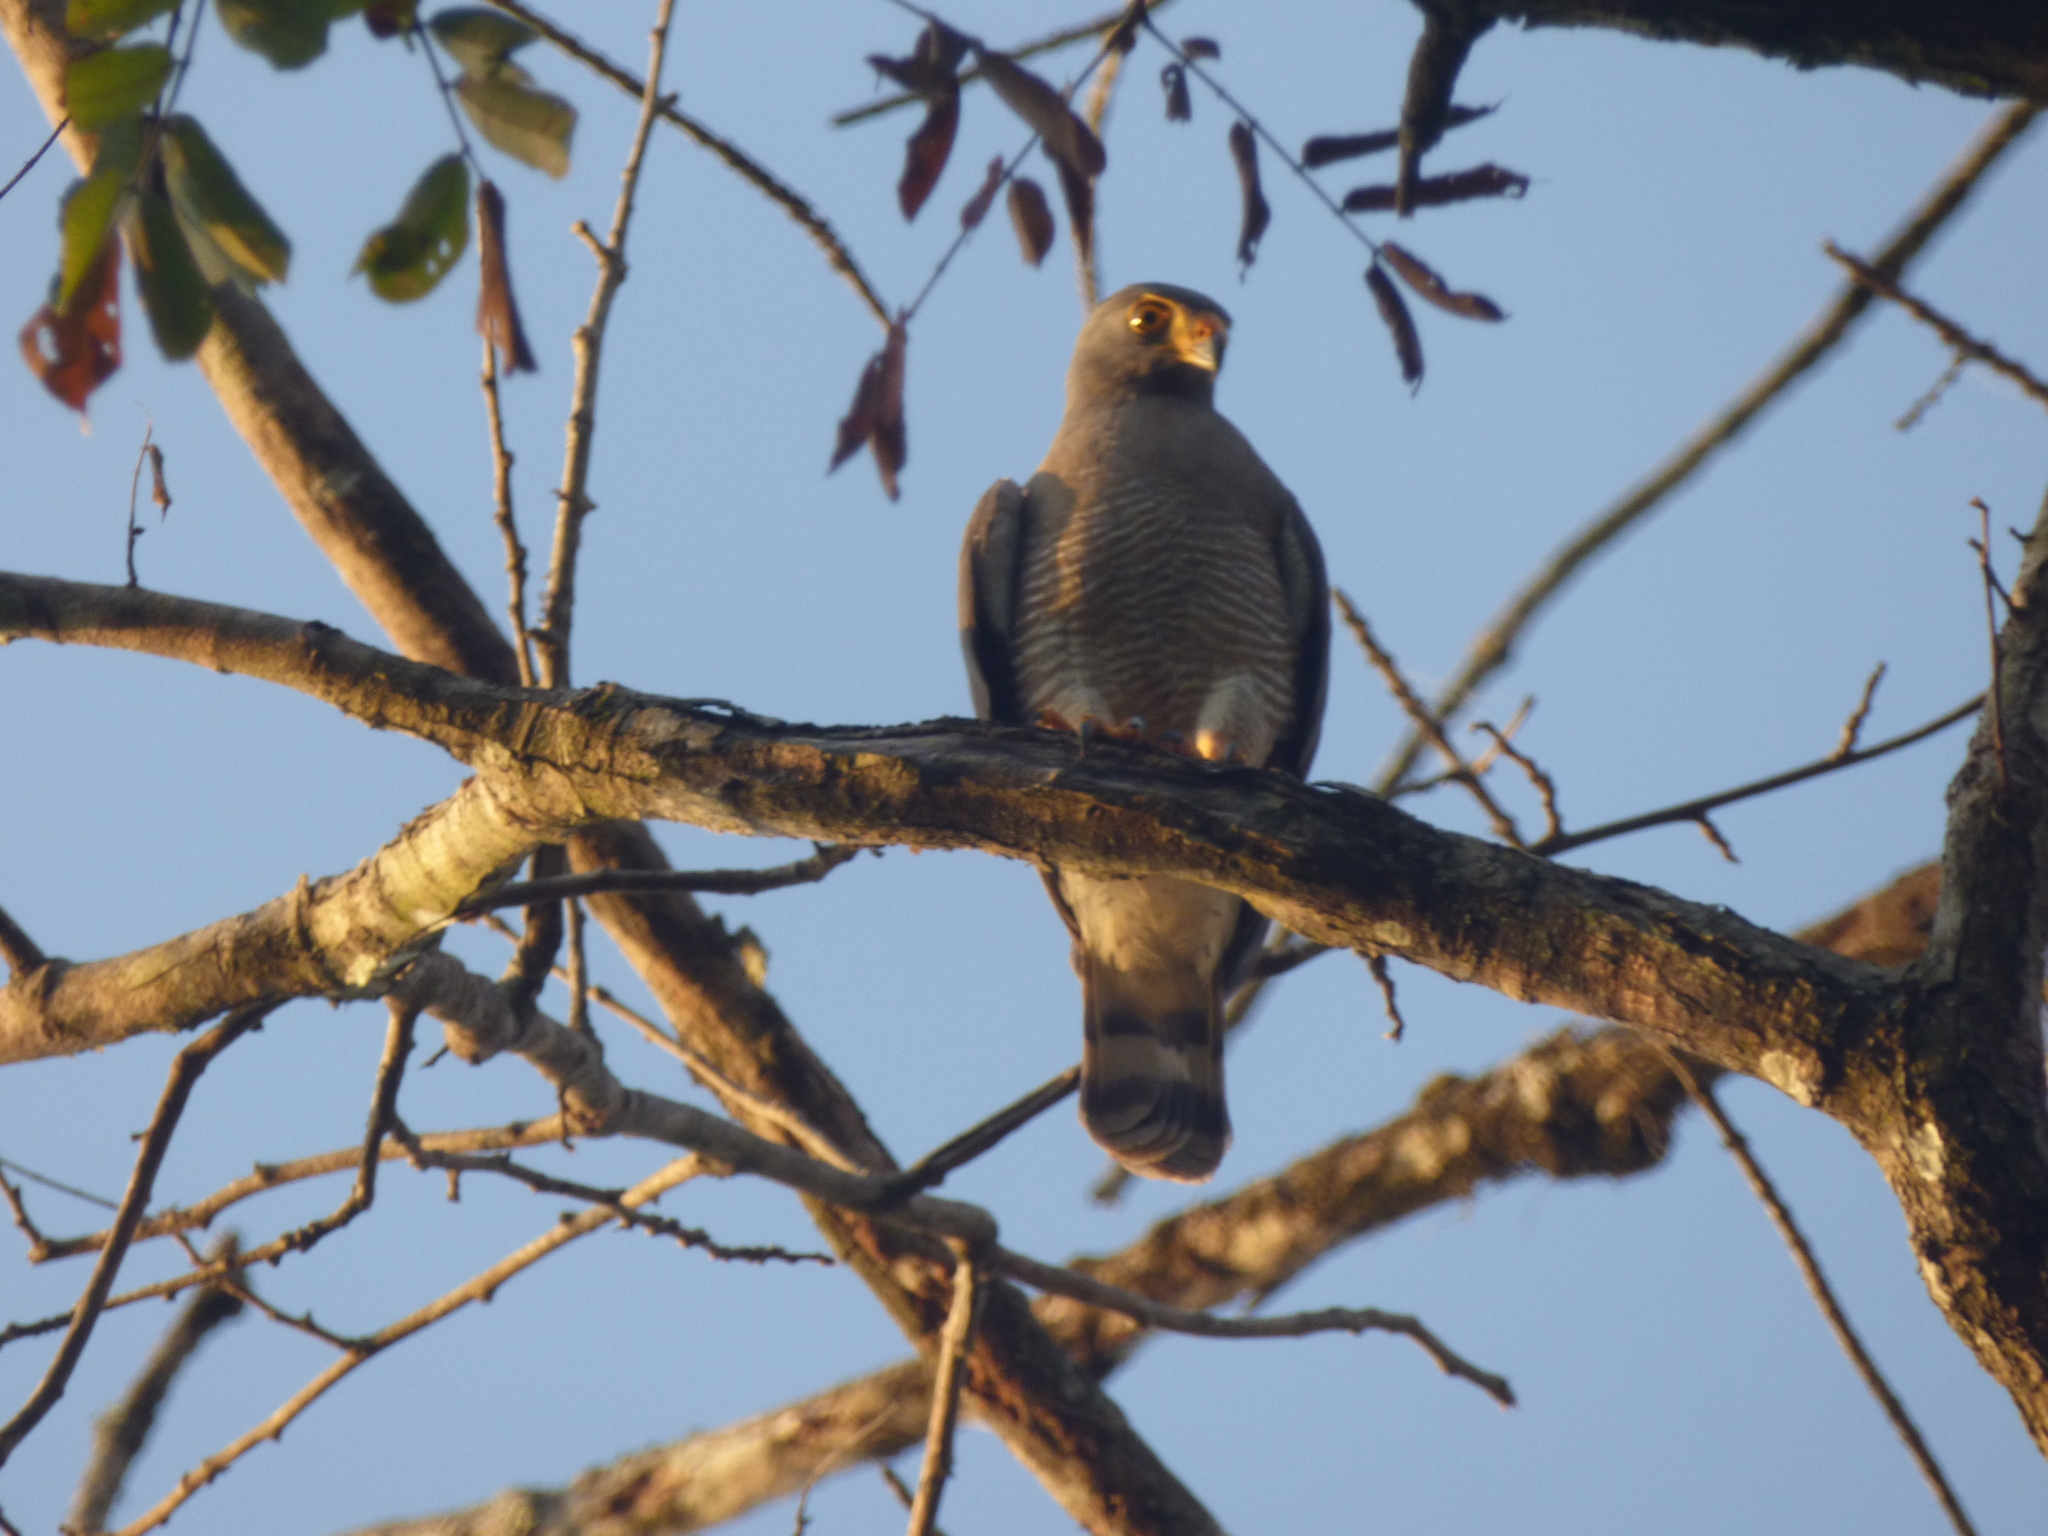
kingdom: Animalia
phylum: Chordata
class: Aves
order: Accipitriformes
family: Accipitridae
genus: Rupornis
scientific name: Rupornis magnirostris
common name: Roadside hawk
